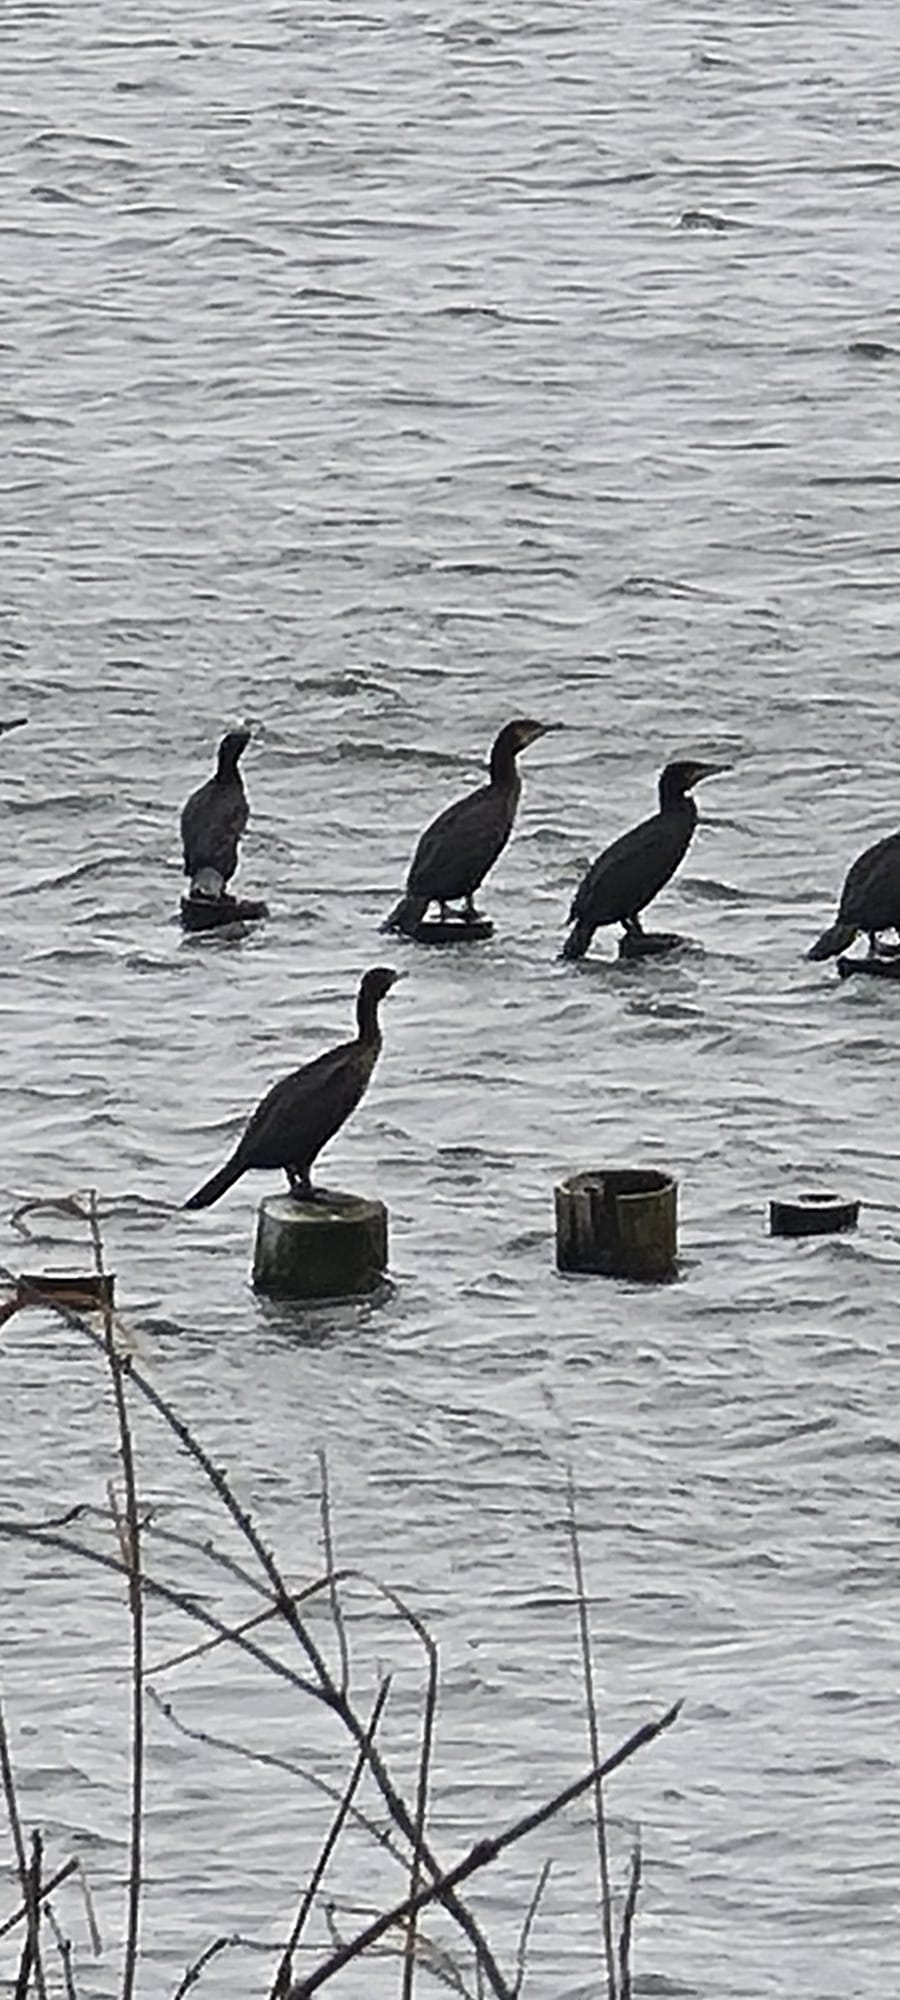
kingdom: Animalia
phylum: Chordata
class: Aves
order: Suliformes
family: Phalacrocoracidae
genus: Phalacrocorax
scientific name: Phalacrocorax carbo
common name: Great cormorant
